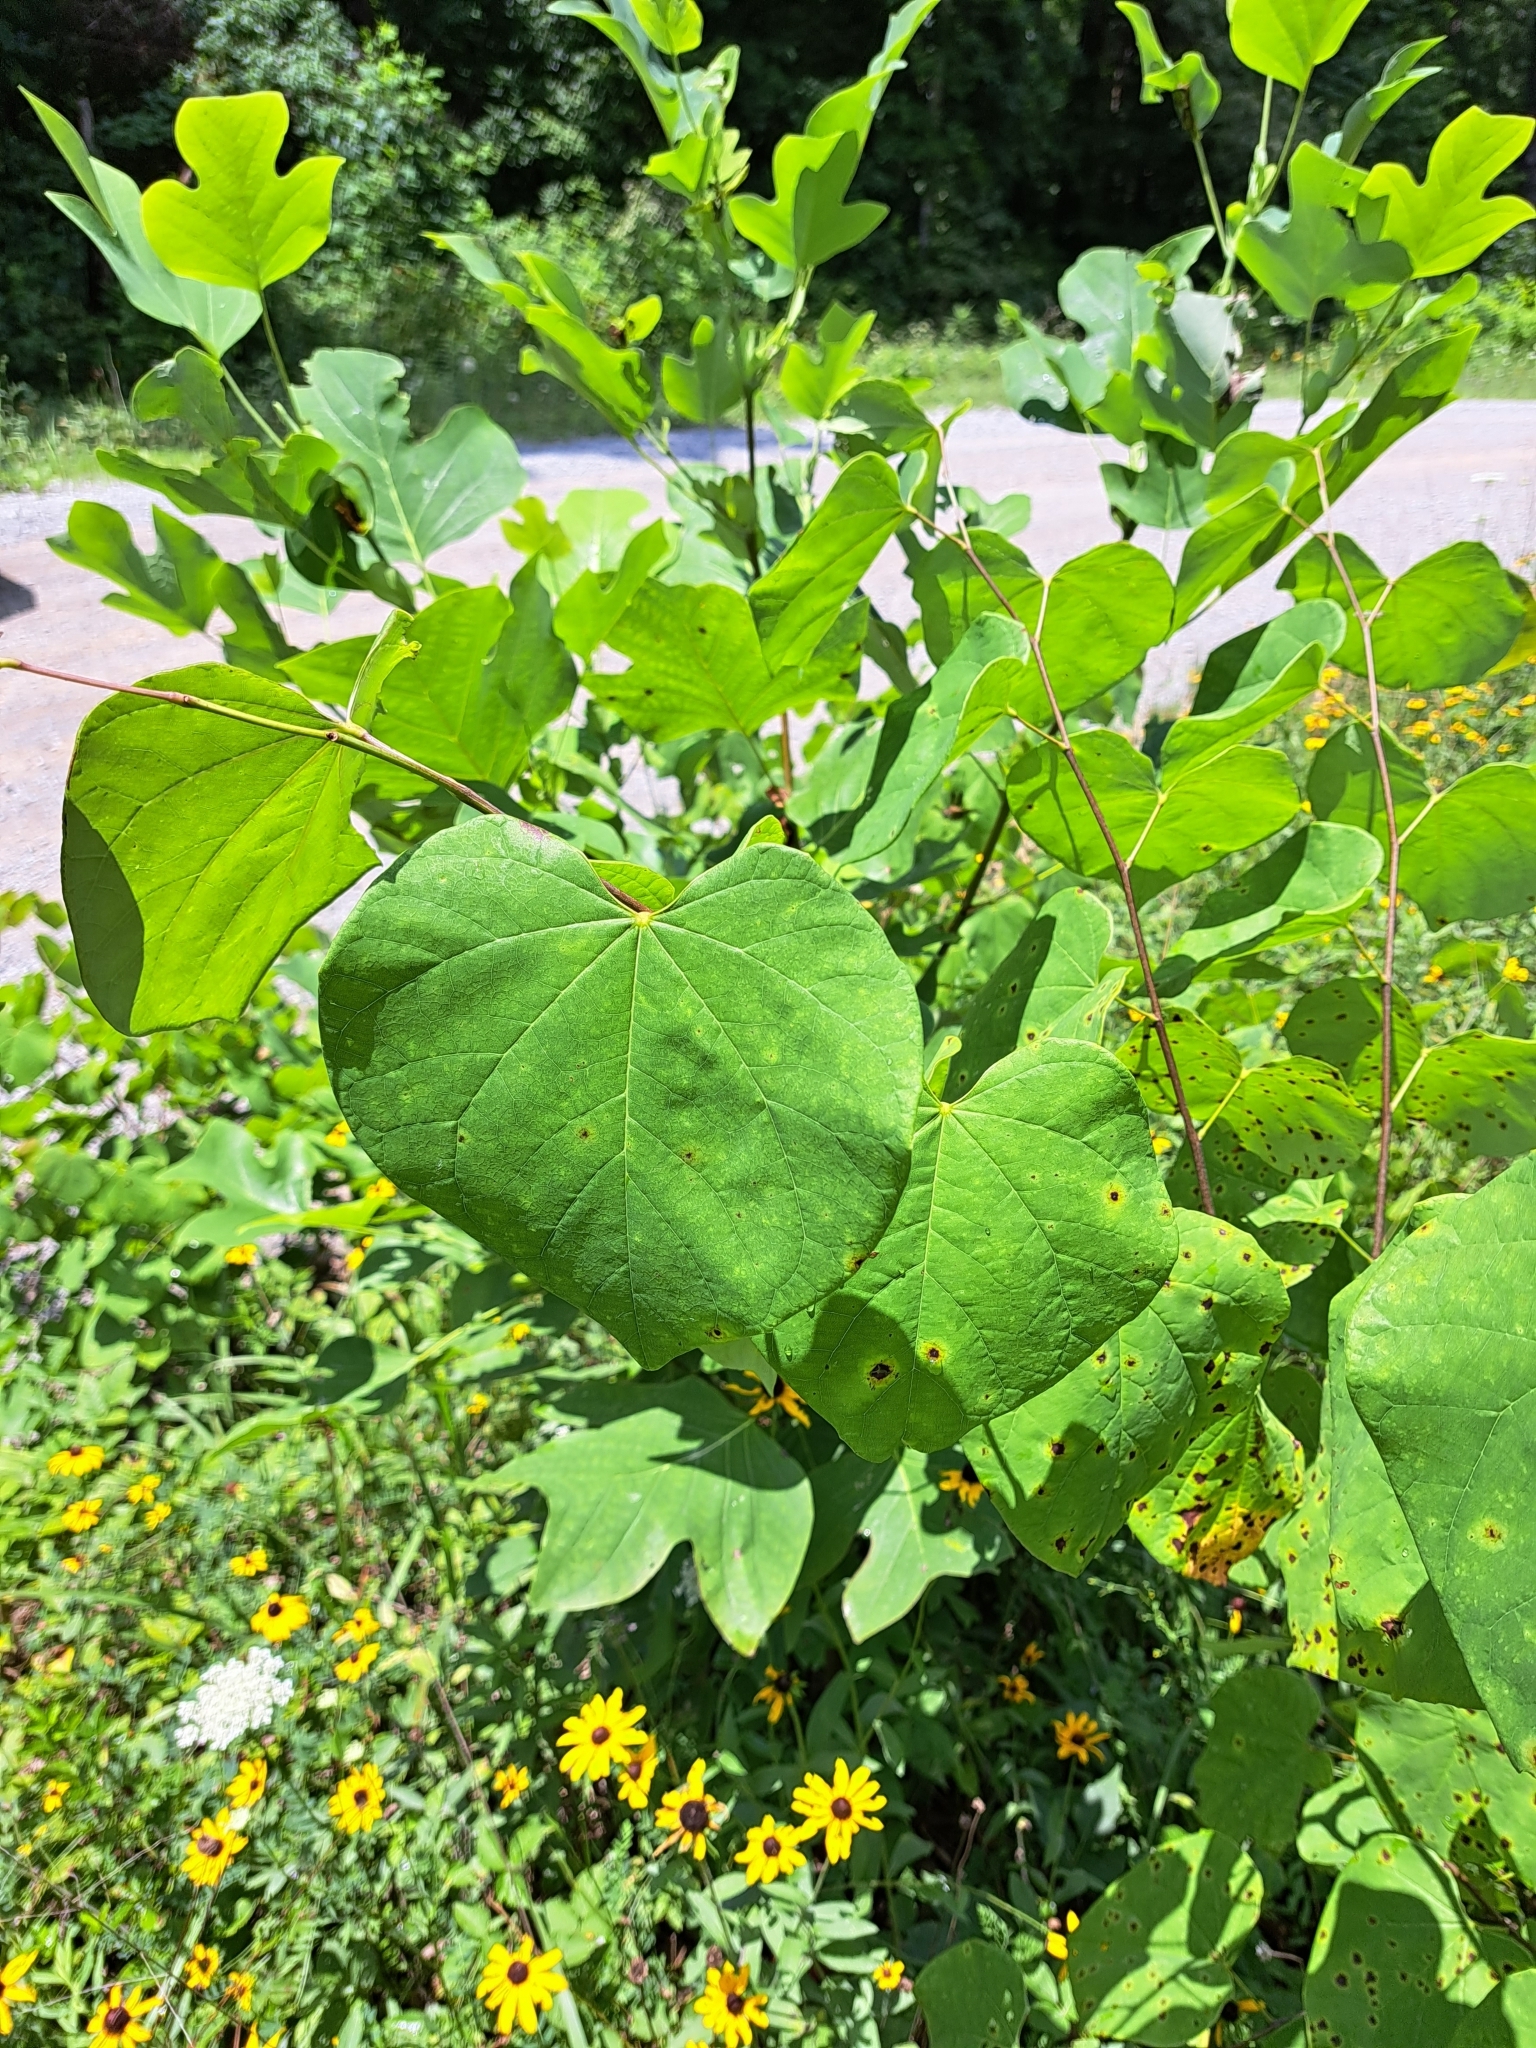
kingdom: Plantae
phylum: Tracheophyta
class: Magnoliopsida
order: Fabales
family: Fabaceae
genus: Cercis
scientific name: Cercis canadensis
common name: Eastern redbud
